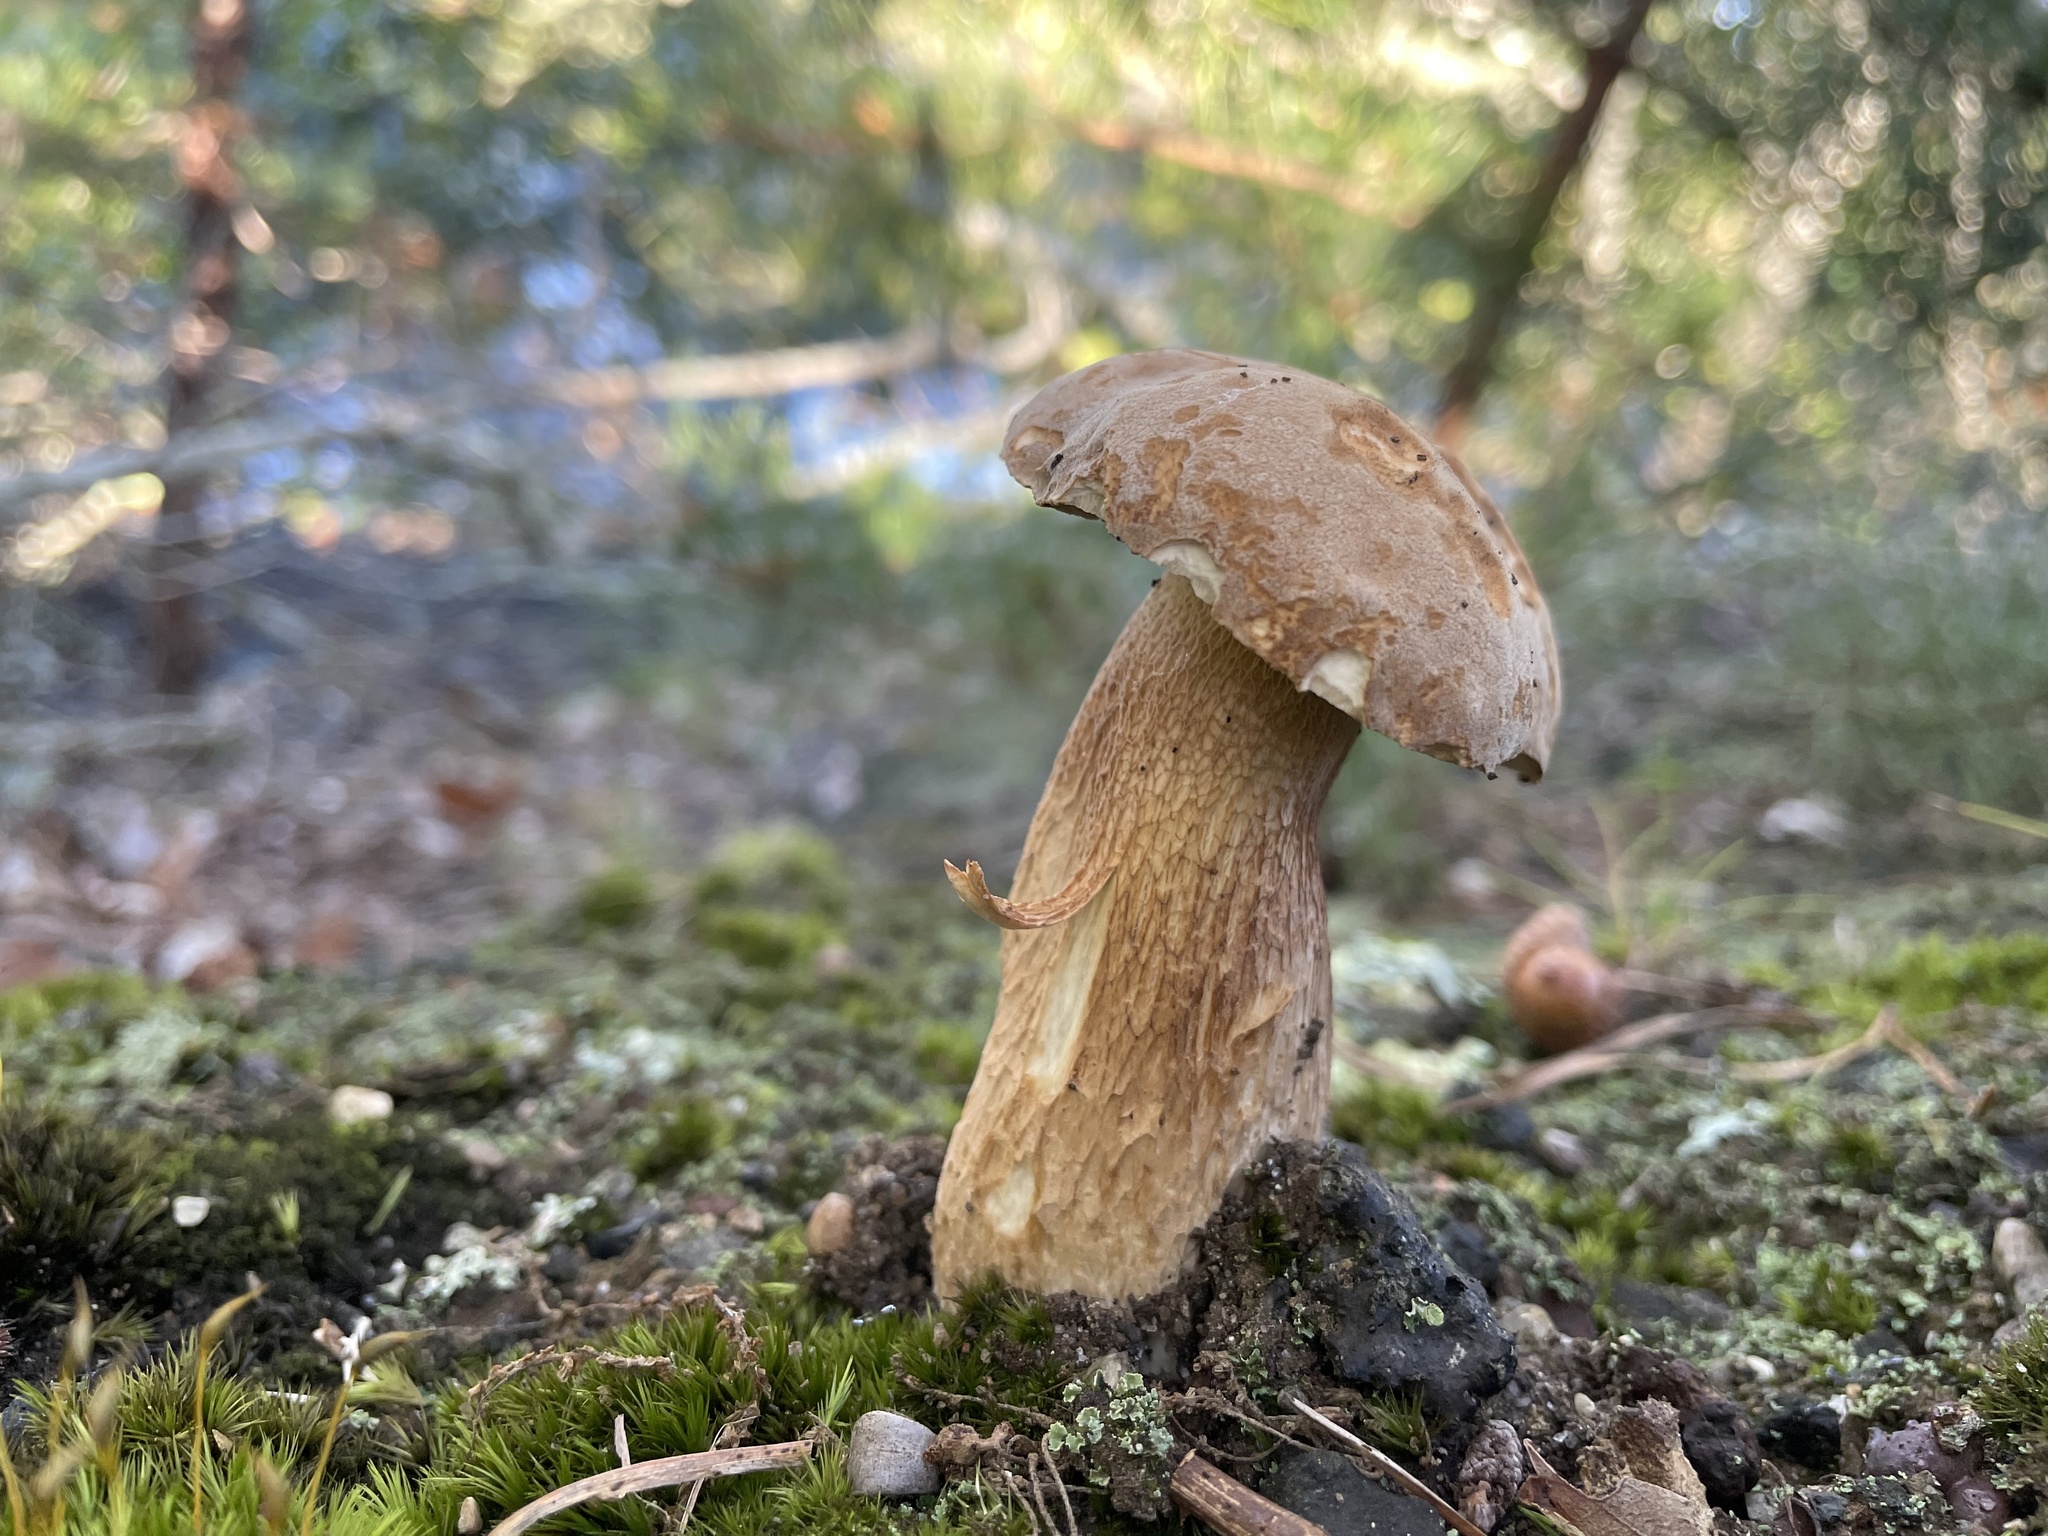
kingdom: Fungi
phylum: Basidiomycota
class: Agaricomycetes
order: Boletales
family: Boletaceae
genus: Boletus
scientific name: Boletus variipes
